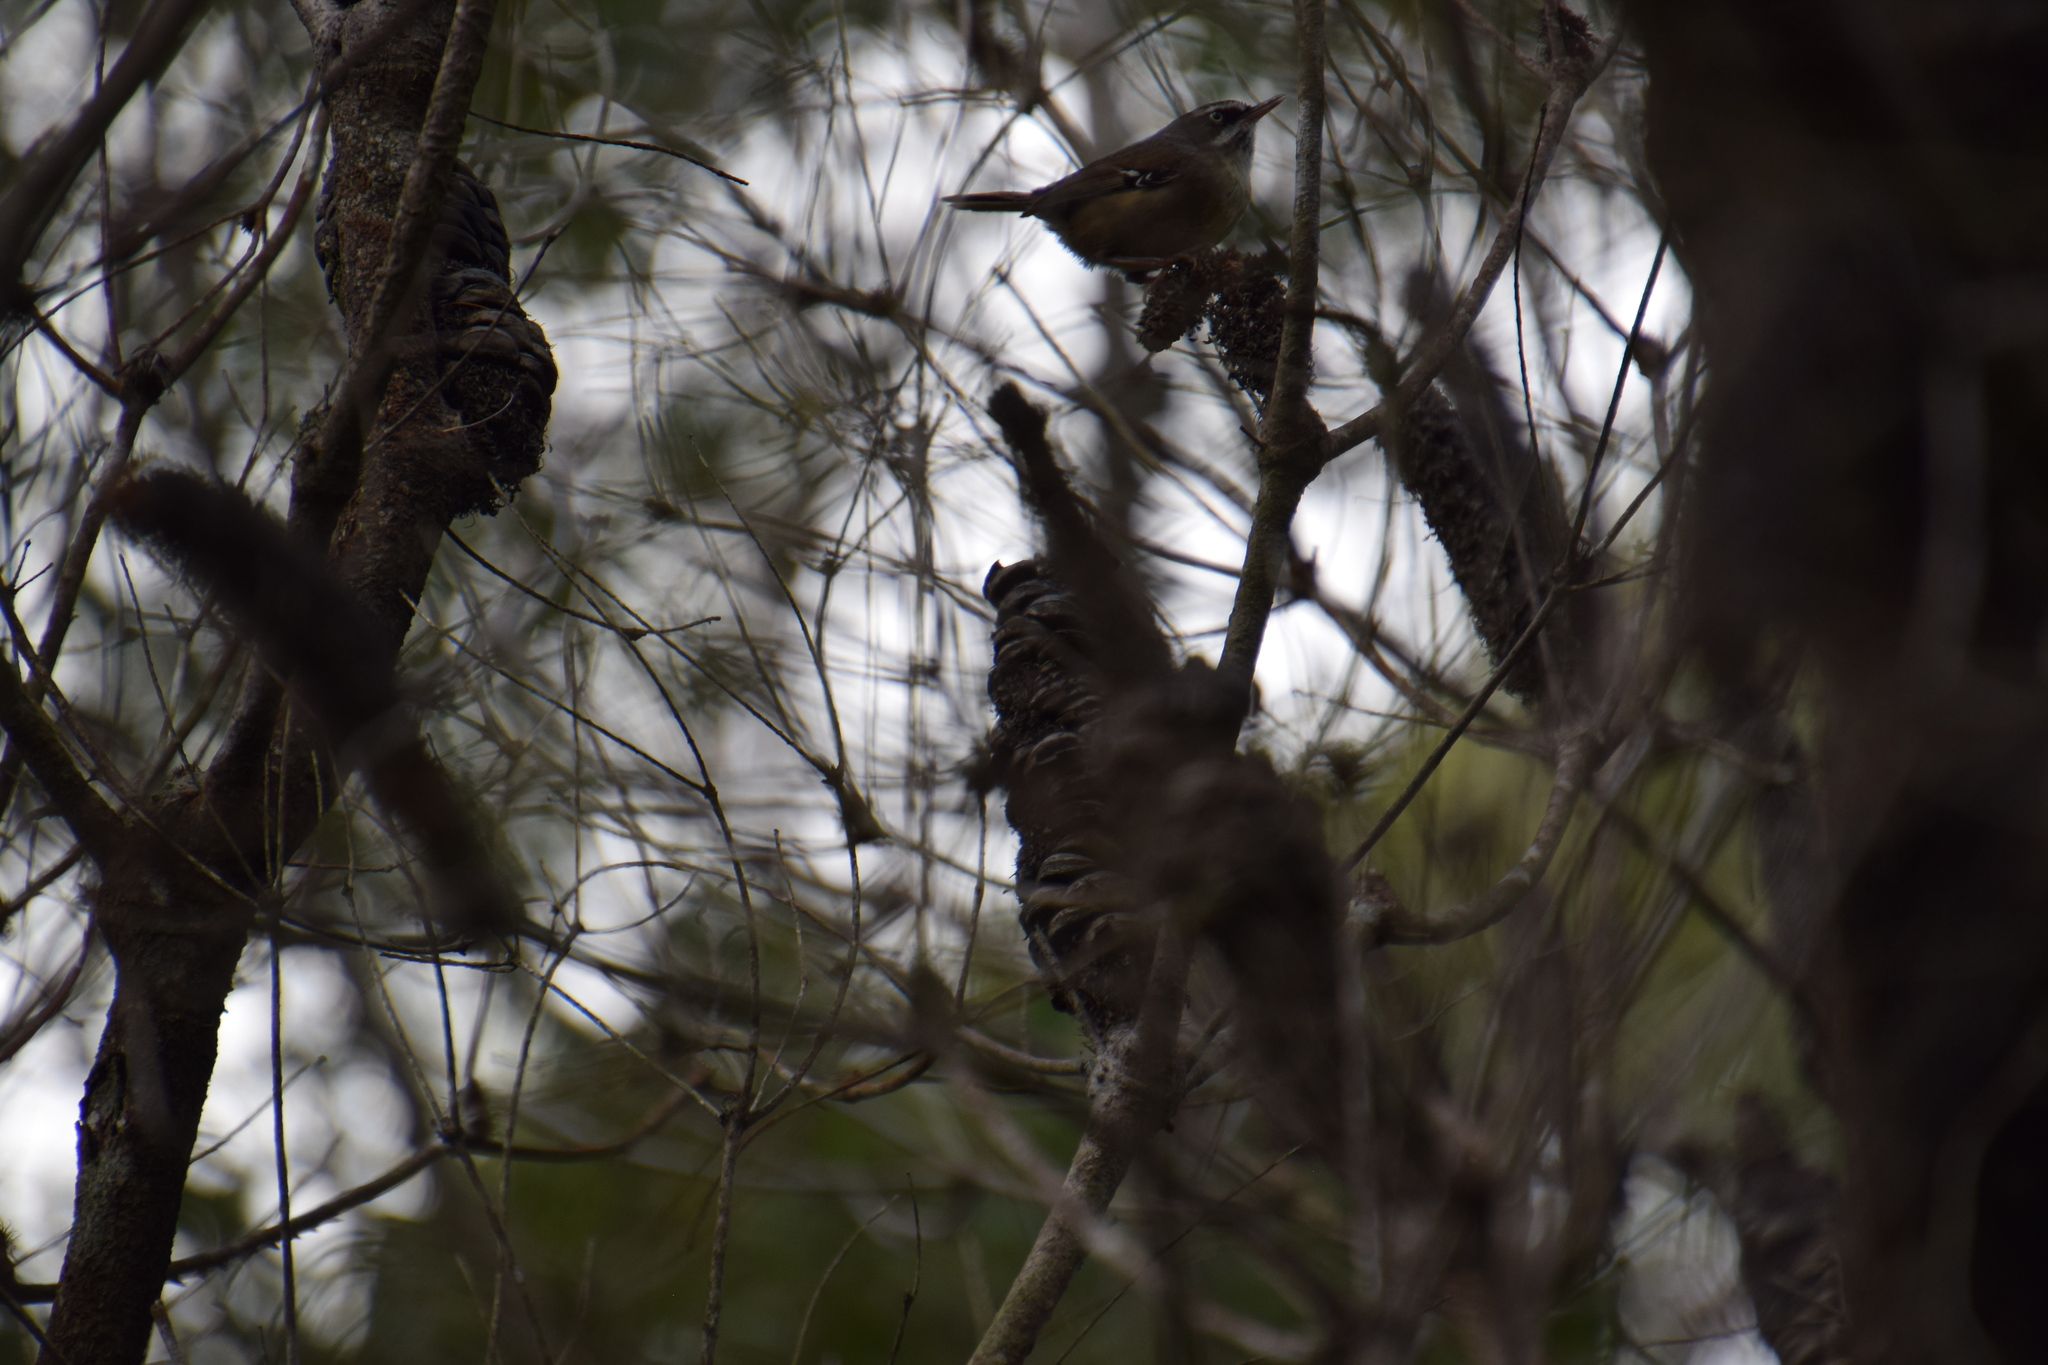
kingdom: Animalia
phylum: Chordata
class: Aves
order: Passeriformes
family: Acanthizidae
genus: Sericornis
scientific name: Sericornis frontalis
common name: White-browed scrubwren
